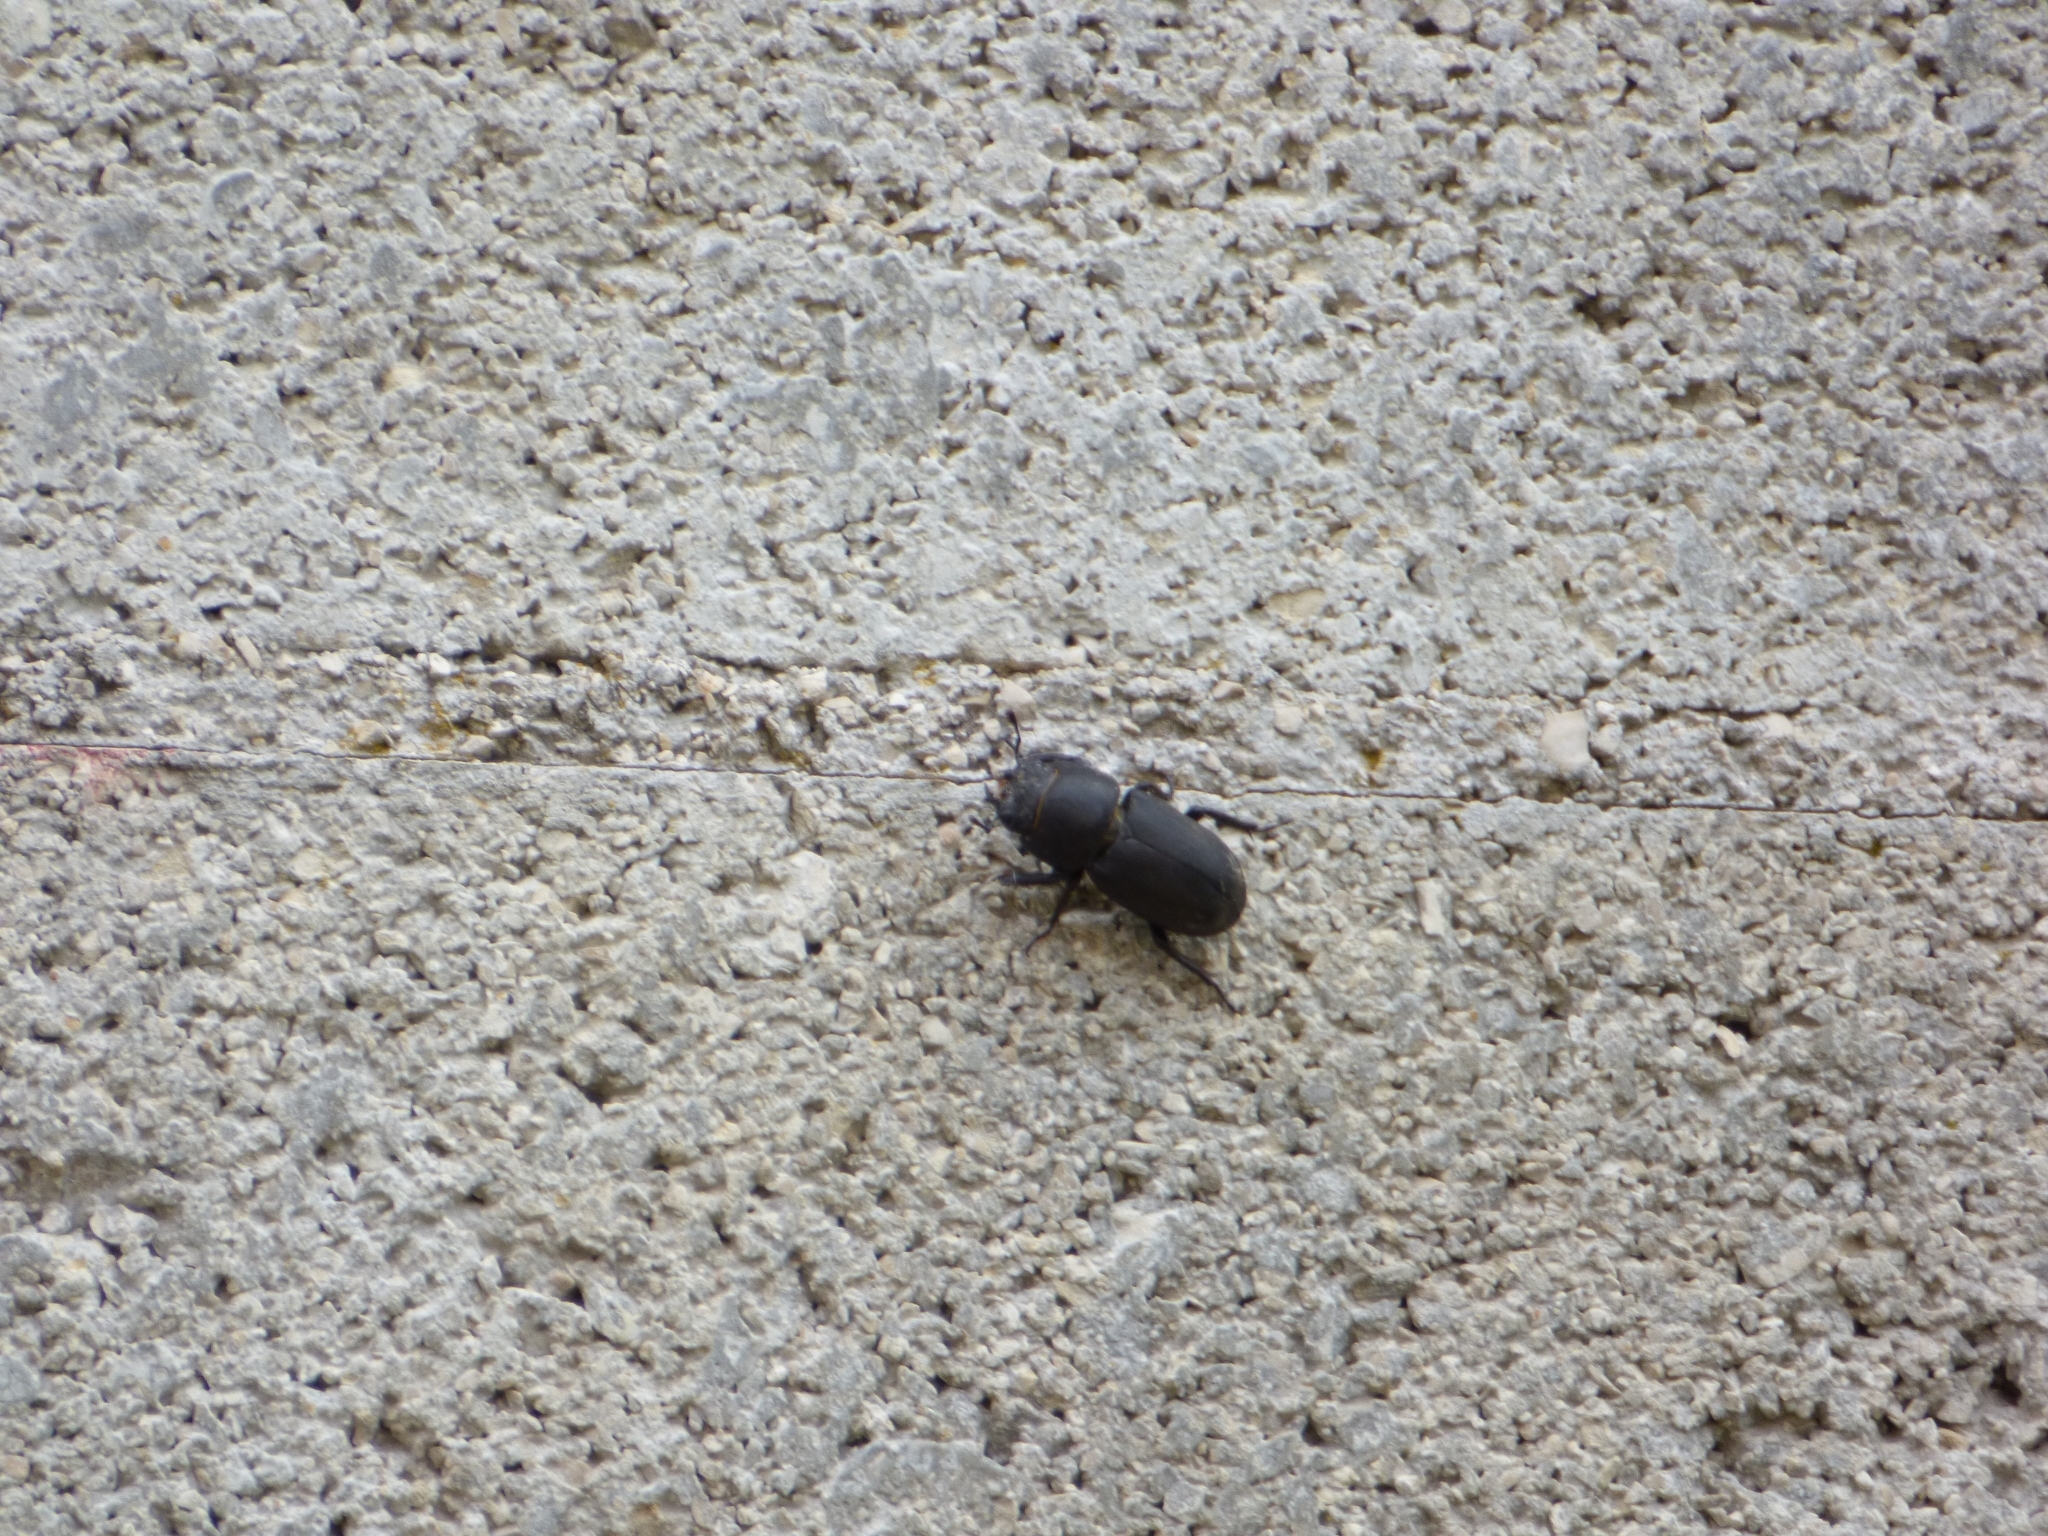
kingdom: Animalia
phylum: Arthropoda
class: Insecta
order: Coleoptera
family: Lucanidae
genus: Dorcus
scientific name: Dorcus parallelipipedus
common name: Lesser stag beetle
